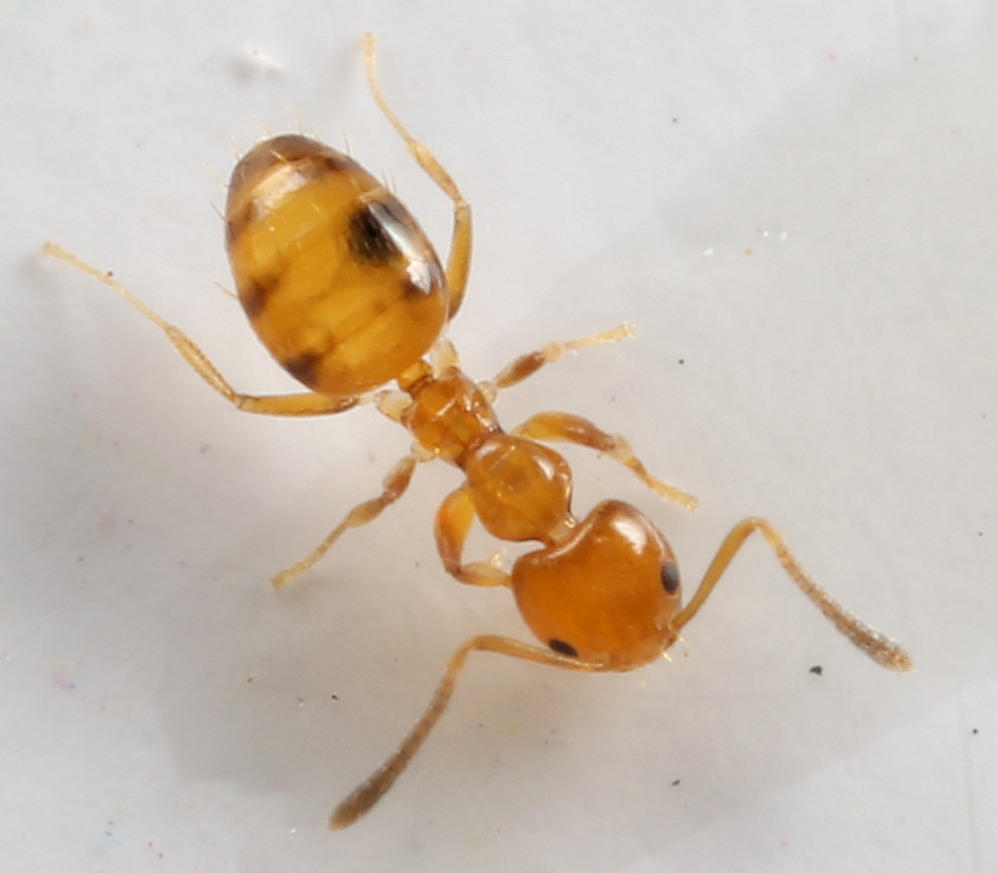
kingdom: Animalia
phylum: Arthropoda
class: Insecta
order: Hymenoptera
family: Formicidae
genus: Plagiolepis
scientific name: Plagiolepis brunni
